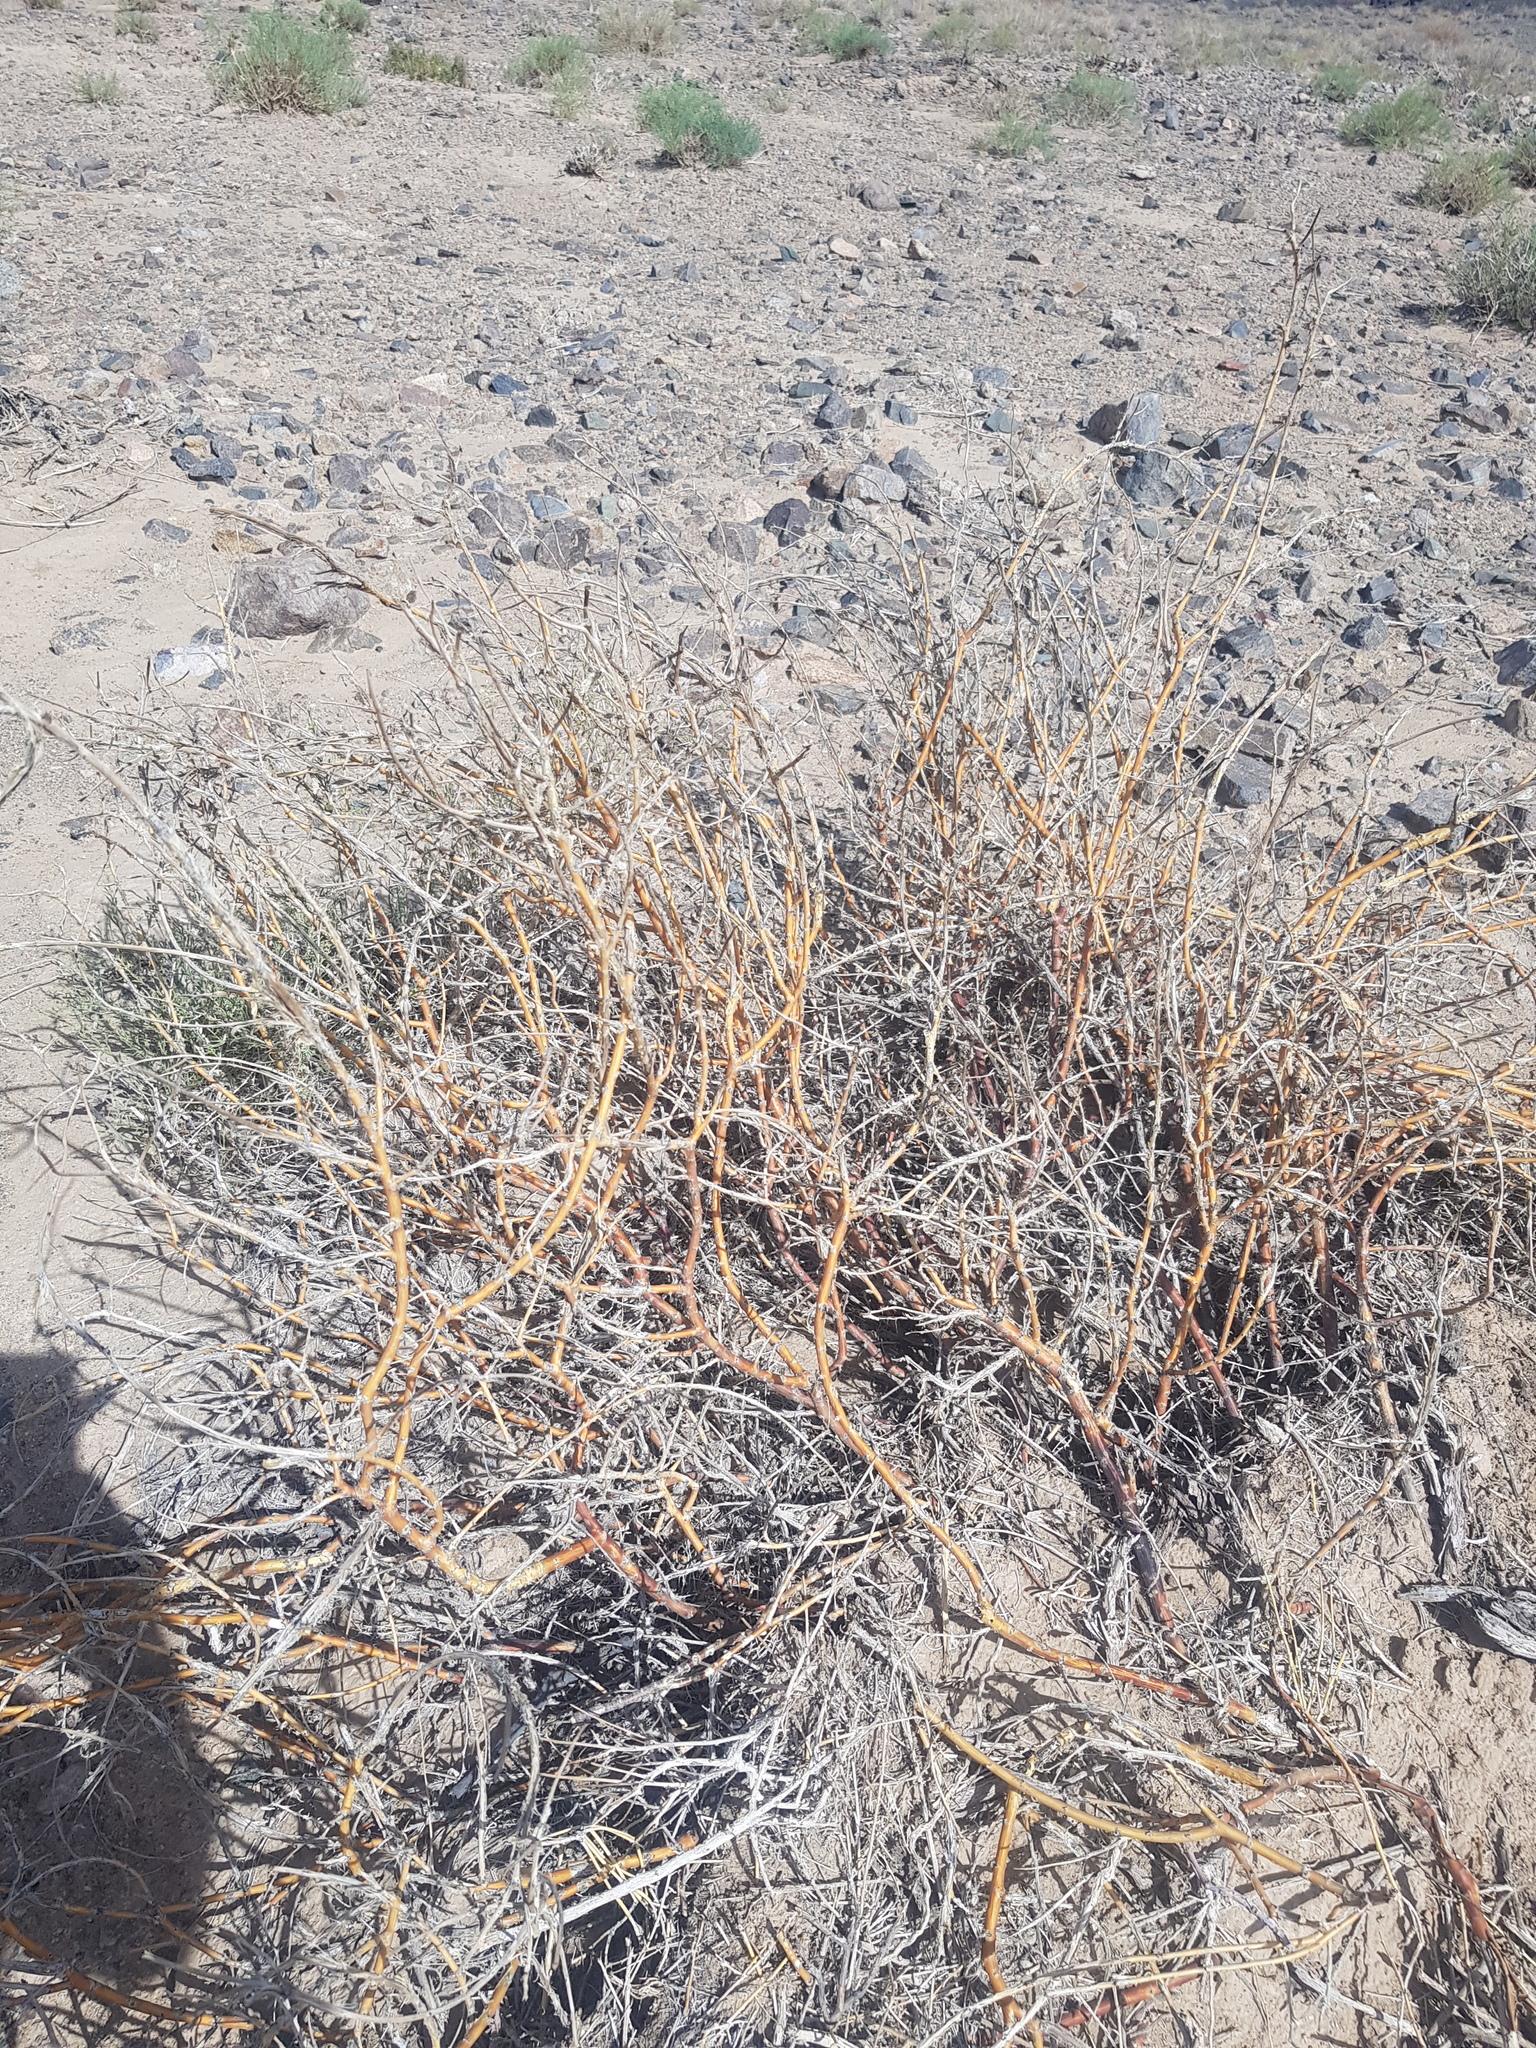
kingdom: Plantae
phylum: Tracheophyta
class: Magnoliopsida
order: Fabales
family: Fabaceae
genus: Caragana
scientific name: Caragana leucophloea
